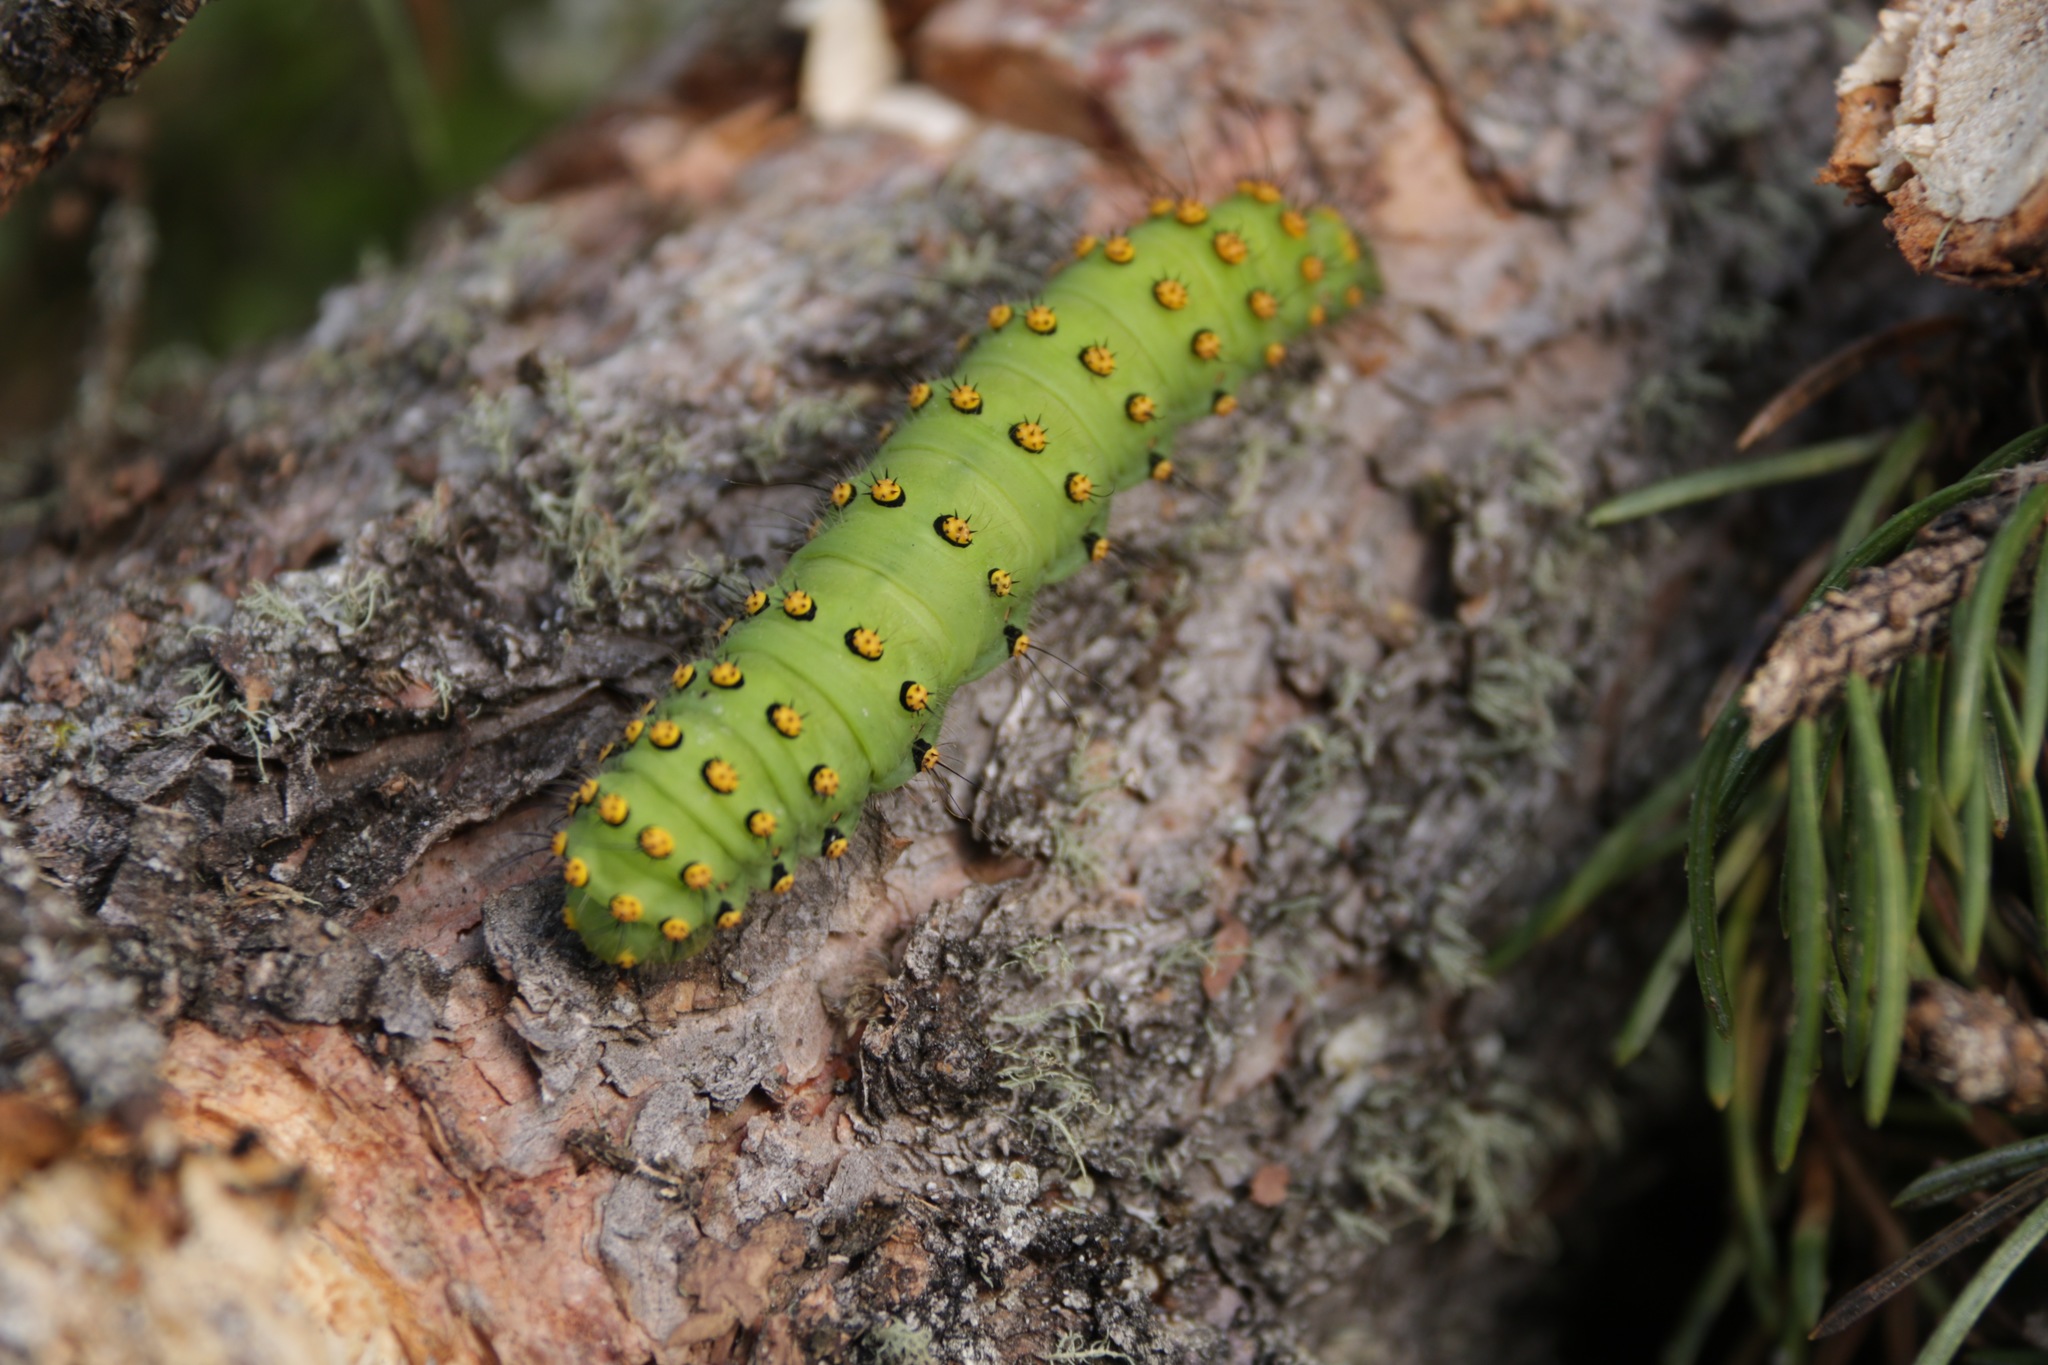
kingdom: Animalia
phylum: Arthropoda
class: Insecta
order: Lepidoptera
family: Saturniidae
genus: Saturnia
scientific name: Saturnia pavonia
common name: Emperor moth
